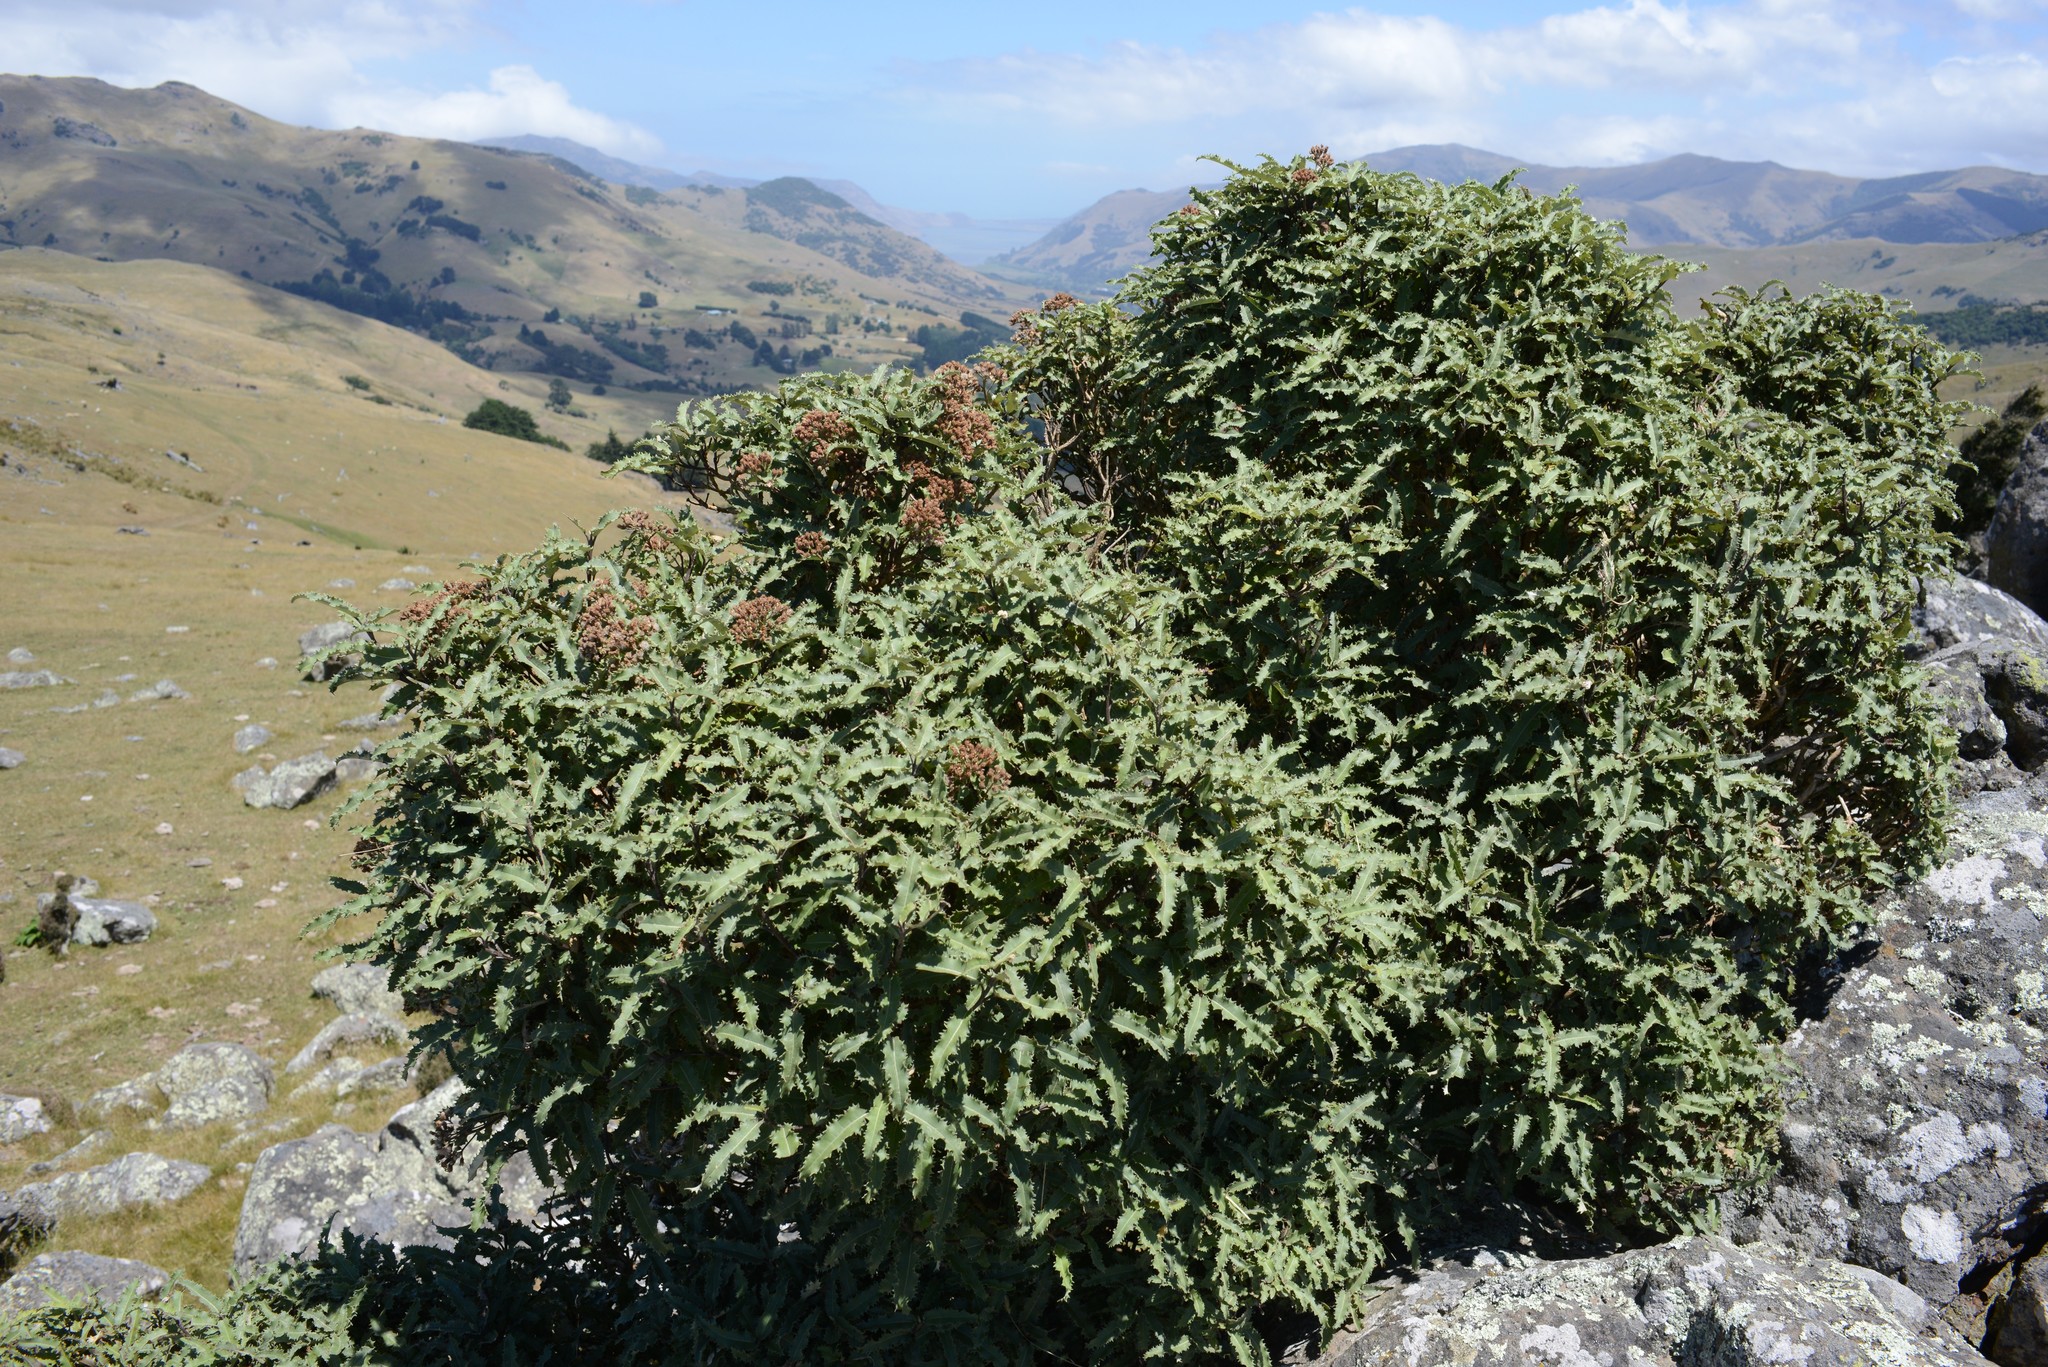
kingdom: Plantae
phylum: Tracheophyta
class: Magnoliopsida
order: Asterales
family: Asteraceae
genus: Olearia
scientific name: Olearia ilicifolia
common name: Maori-holly
